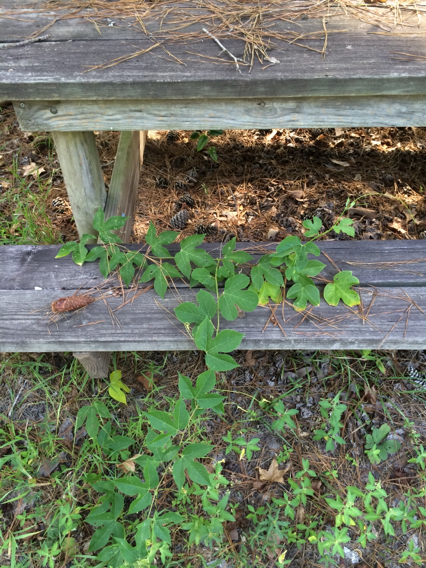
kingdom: Plantae
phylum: Tracheophyta
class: Magnoliopsida
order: Malpighiales
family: Passifloraceae
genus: Passiflora
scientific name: Passiflora incarnata
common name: Apricot-vine
